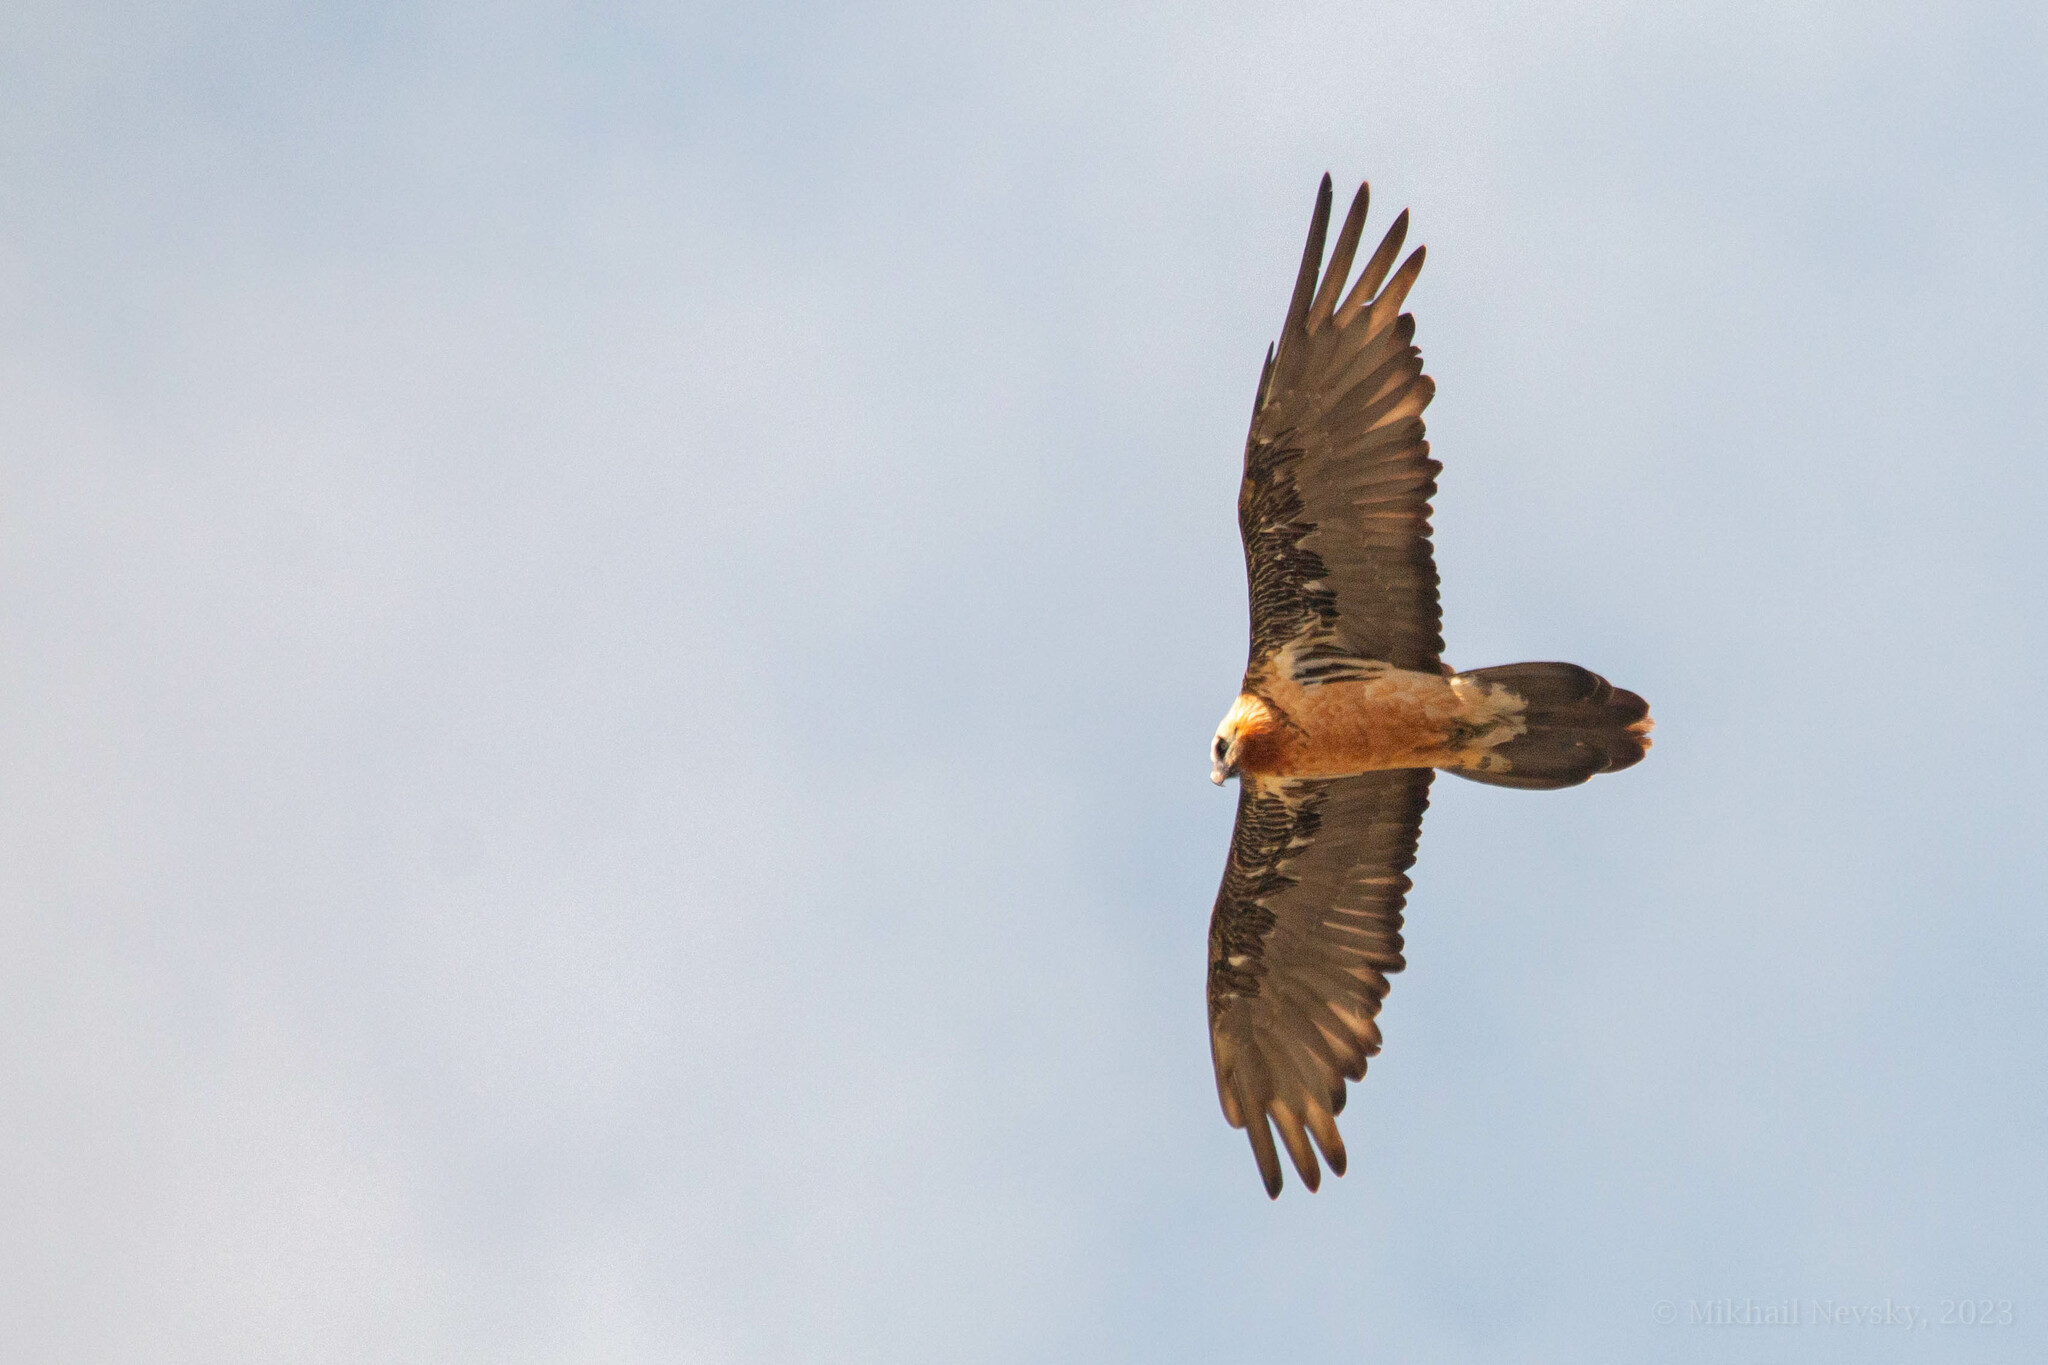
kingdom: Animalia
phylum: Chordata
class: Aves
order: Accipitriformes
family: Accipitridae
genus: Gypaetus
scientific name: Gypaetus barbatus
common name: Bearded vulture
